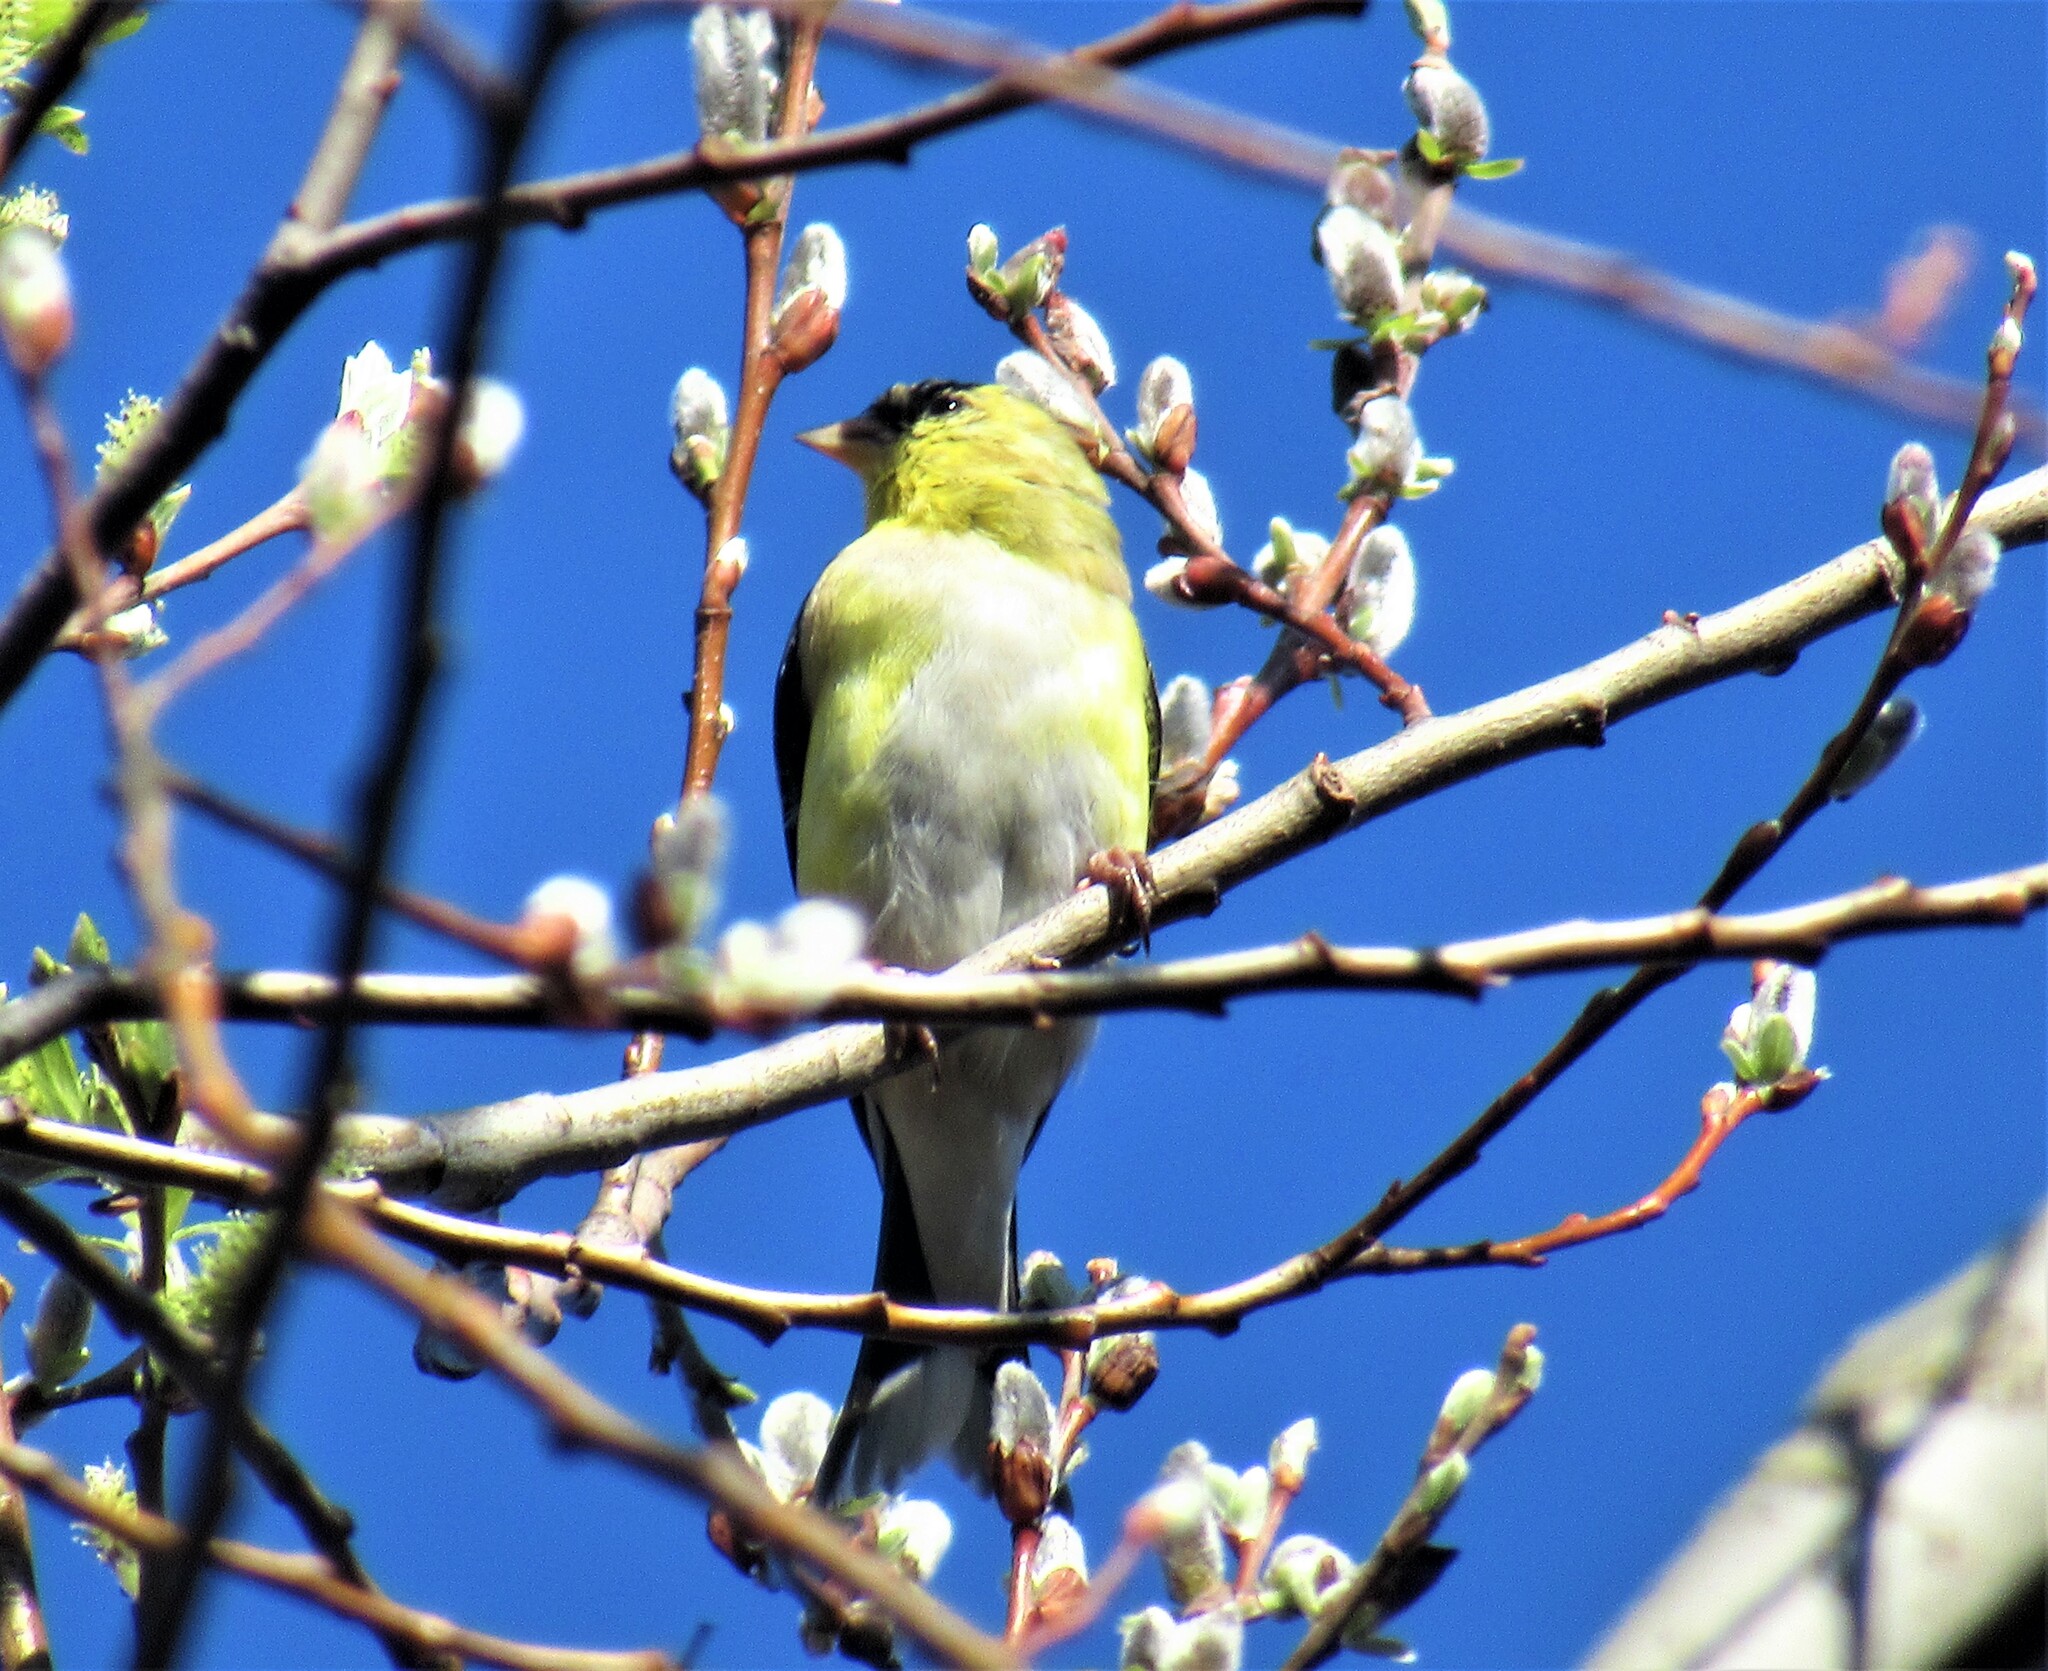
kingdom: Animalia
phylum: Chordata
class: Aves
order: Passeriformes
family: Fringillidae
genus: Spinus
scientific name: Spinus tristis
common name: American goldfinch
